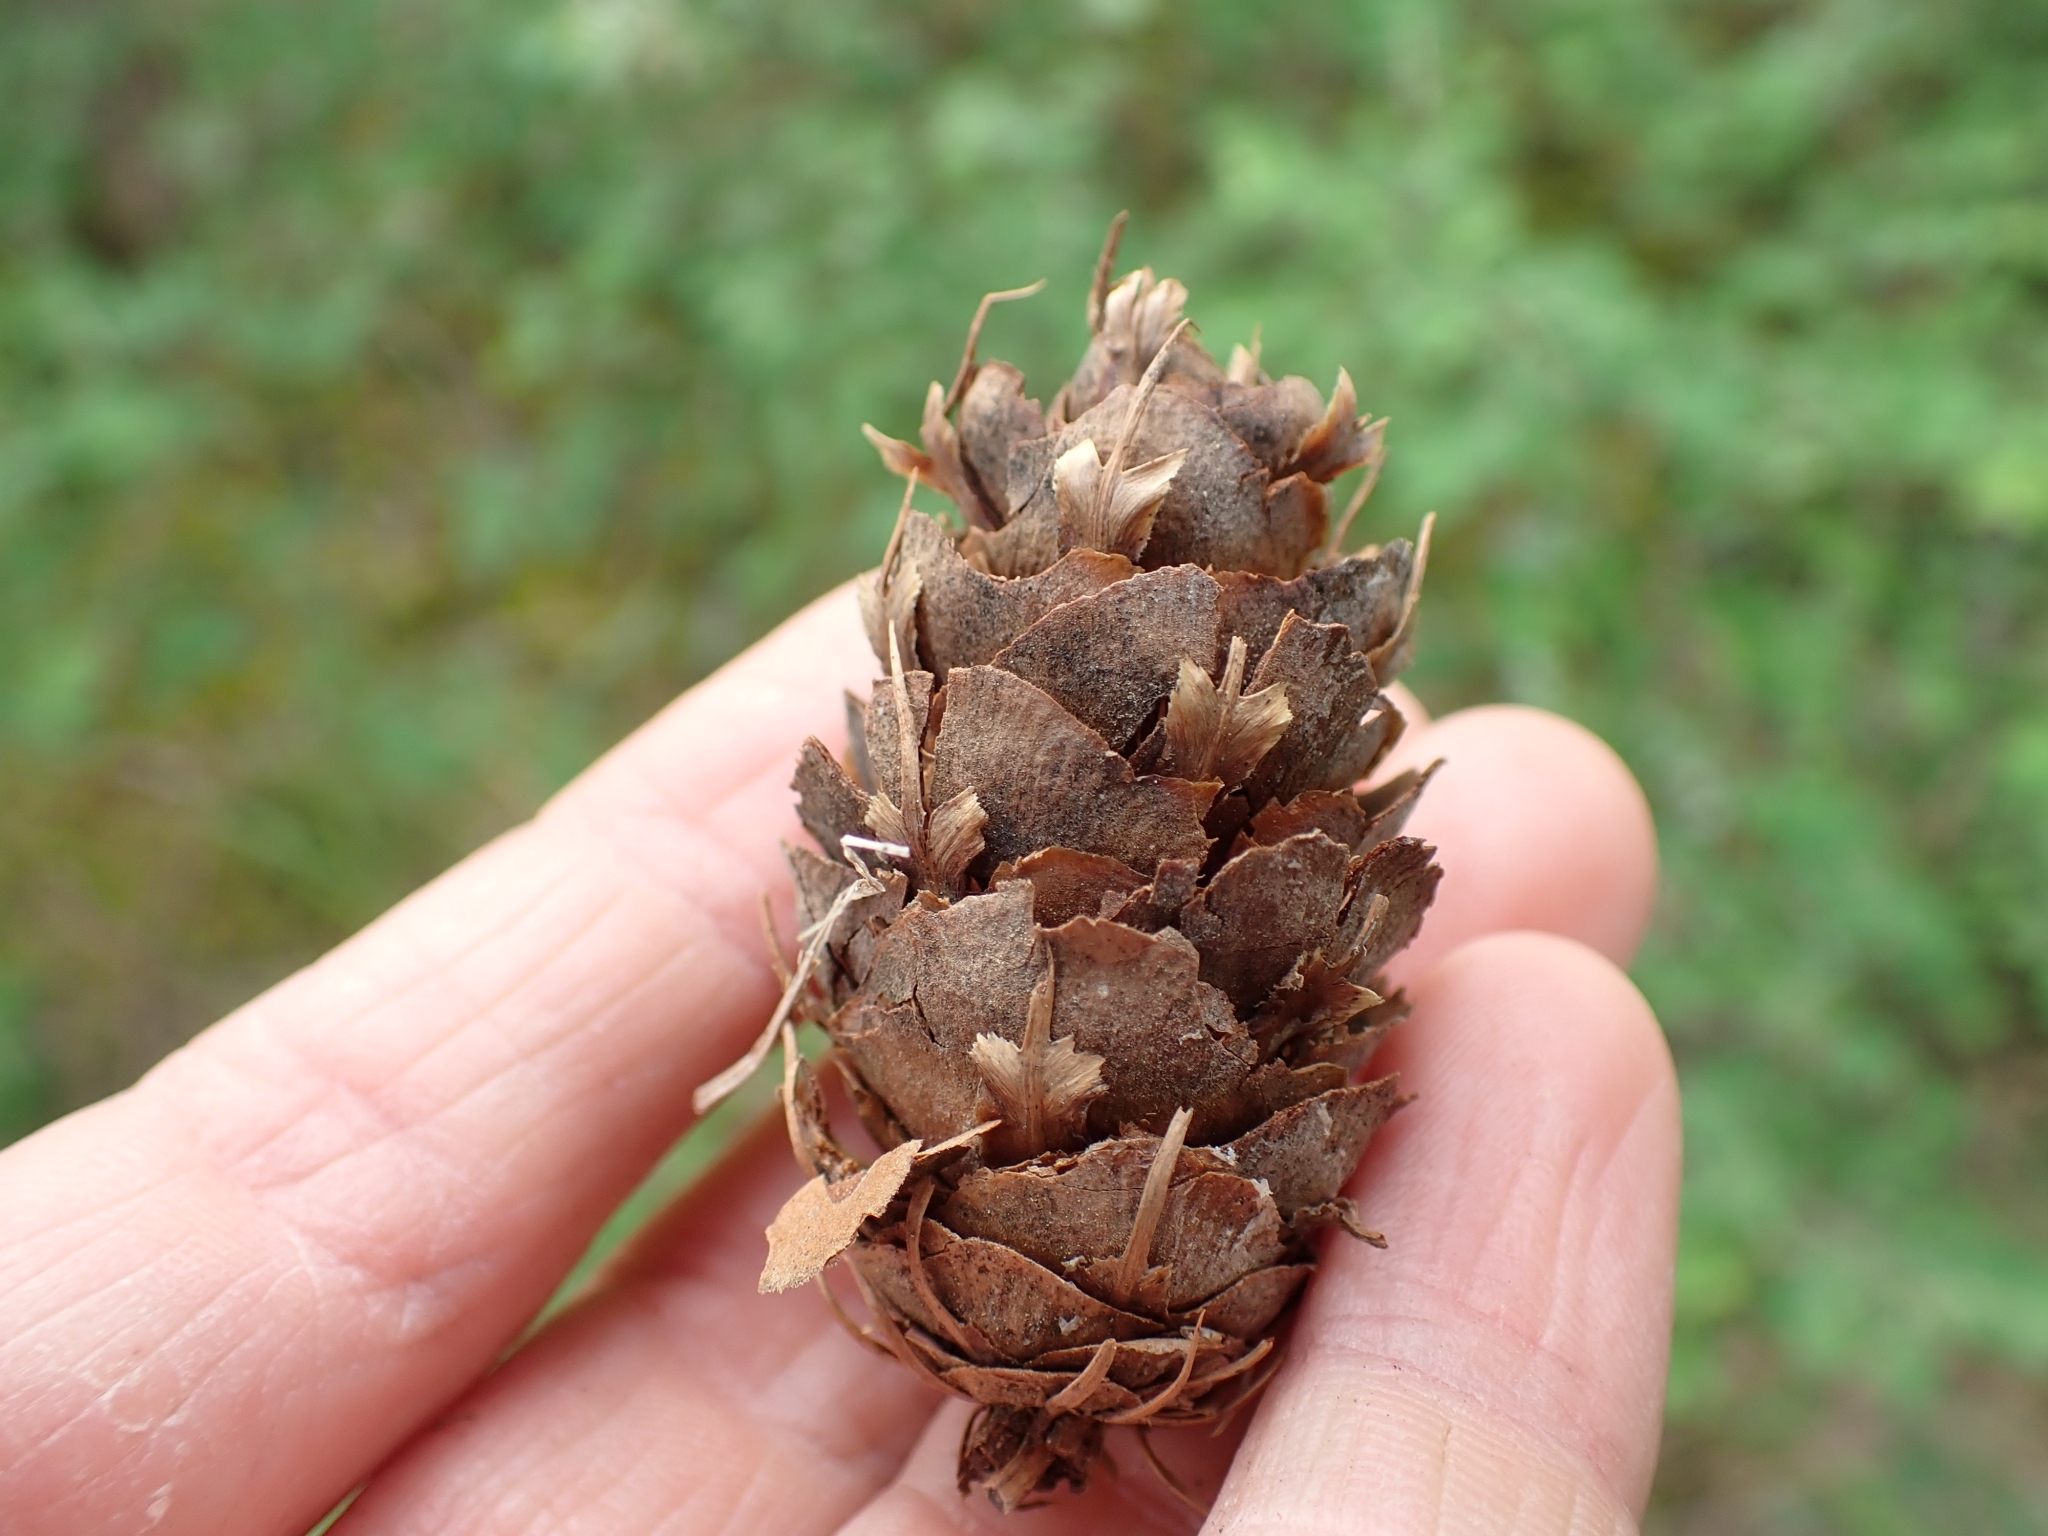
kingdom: Plantae
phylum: Tracheophyta
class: Pinopsida
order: Pinales
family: Pinaceae
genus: Pseudotsuga
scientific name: Pseudotsuga menziesii
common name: Douglas fir
